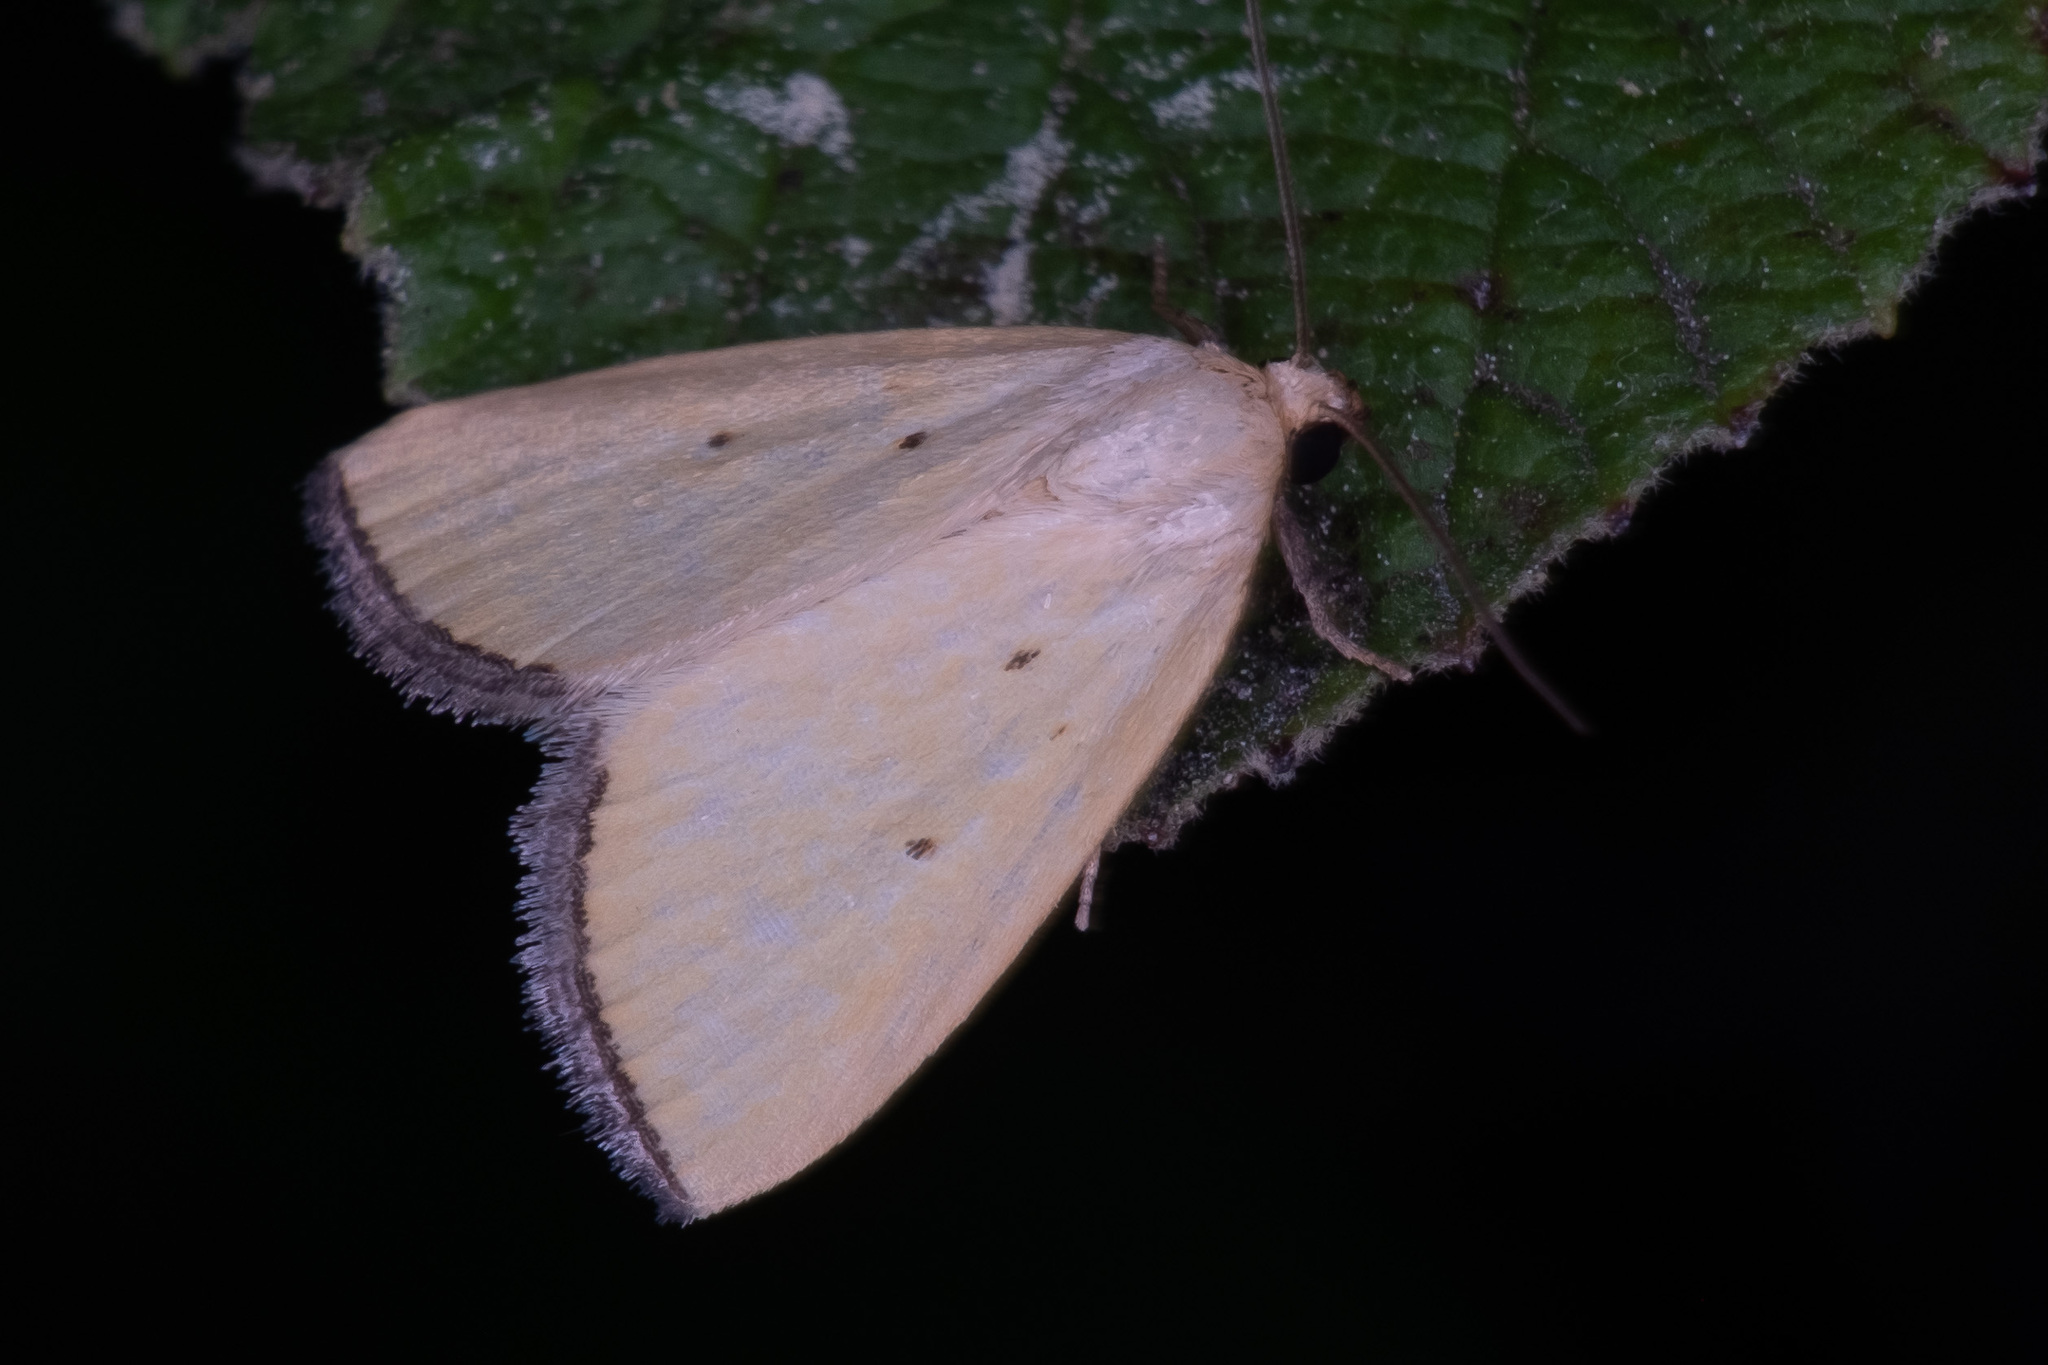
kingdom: Animalia
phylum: Arthropoda
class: Insecta
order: Lepidoptera
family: Noctuidae
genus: Marimatha
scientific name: Marimatha nigrofimbria
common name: Black-bordered lemon moth
